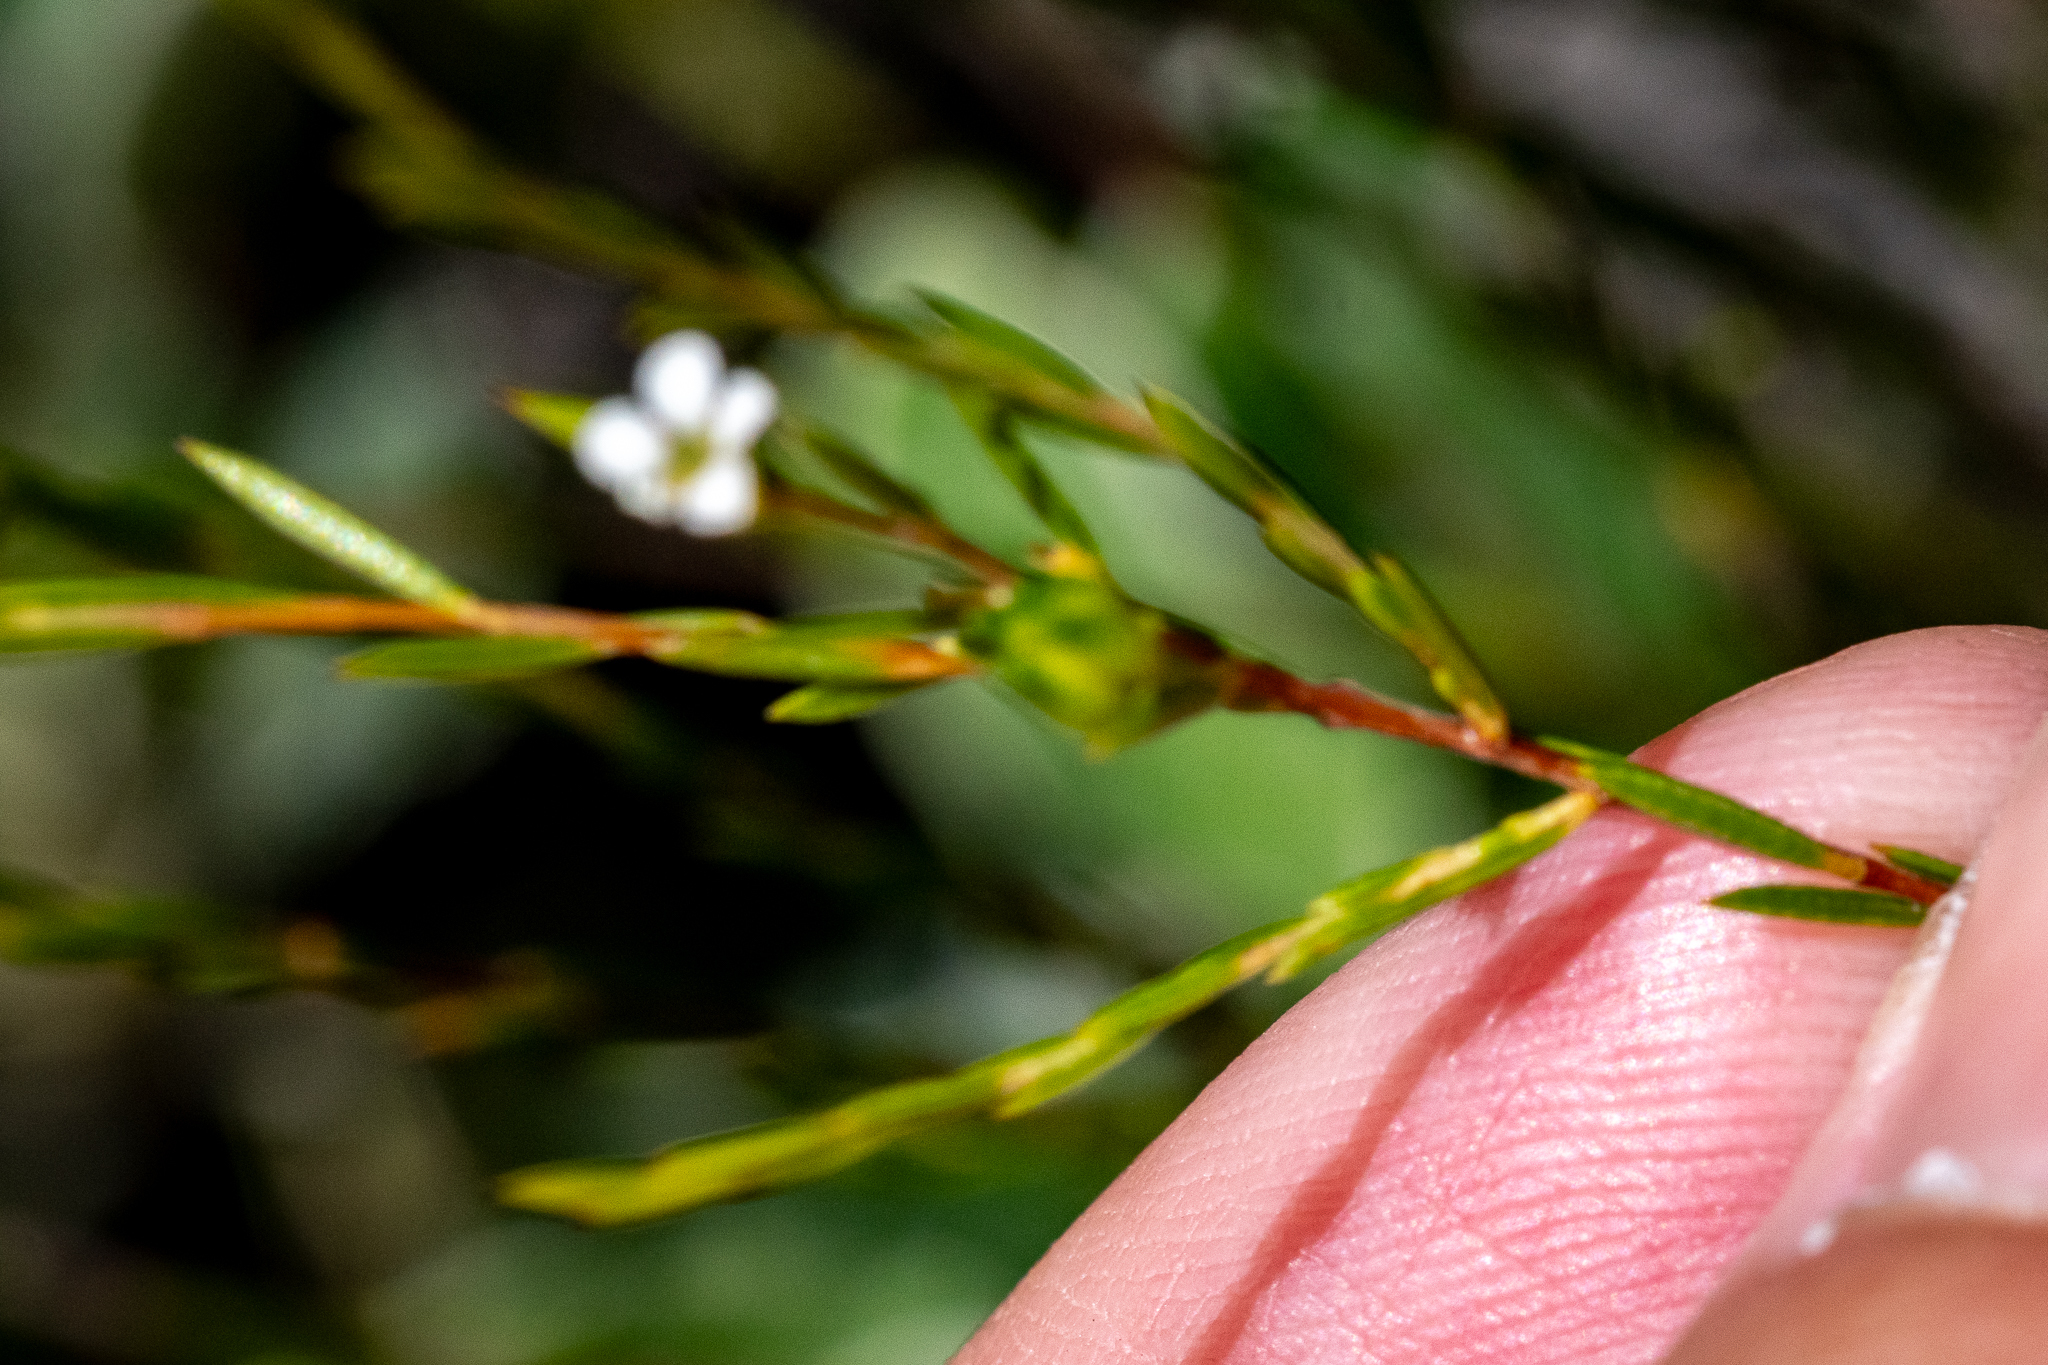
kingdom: Plantae
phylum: Tracheophyta
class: Magnoliopsida
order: Sapindales
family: Rutaceae
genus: Coleonema
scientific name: Coleonema juniperinum
